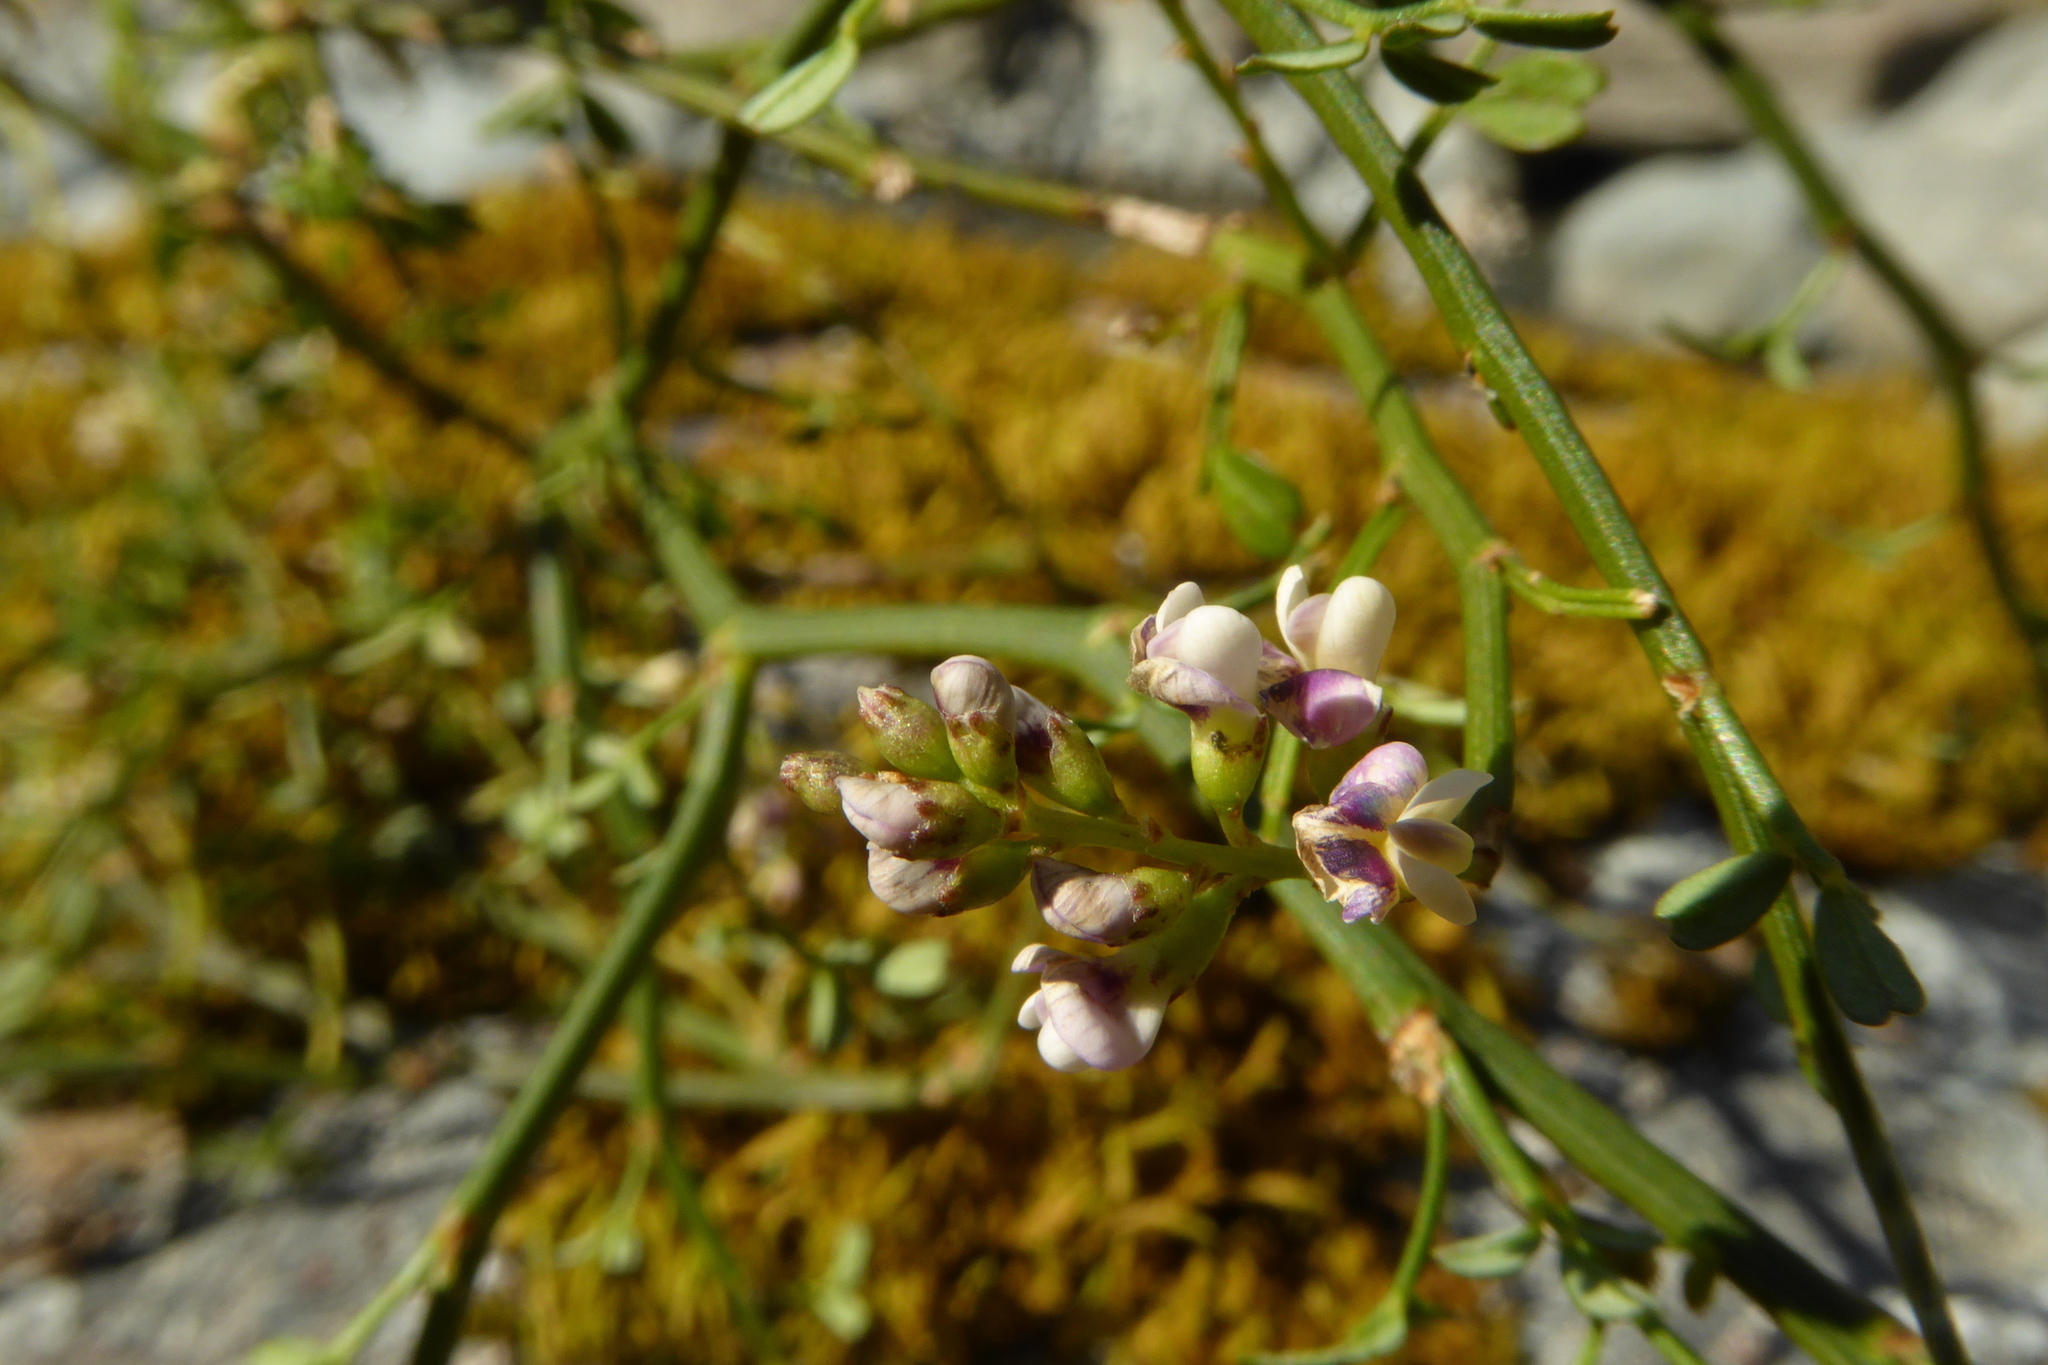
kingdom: Plantae
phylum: Tracheophyta
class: Magnoliopsida
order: Fabales
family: Fabaceae
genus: Carmichaelia
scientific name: Carmichaelia odorata
